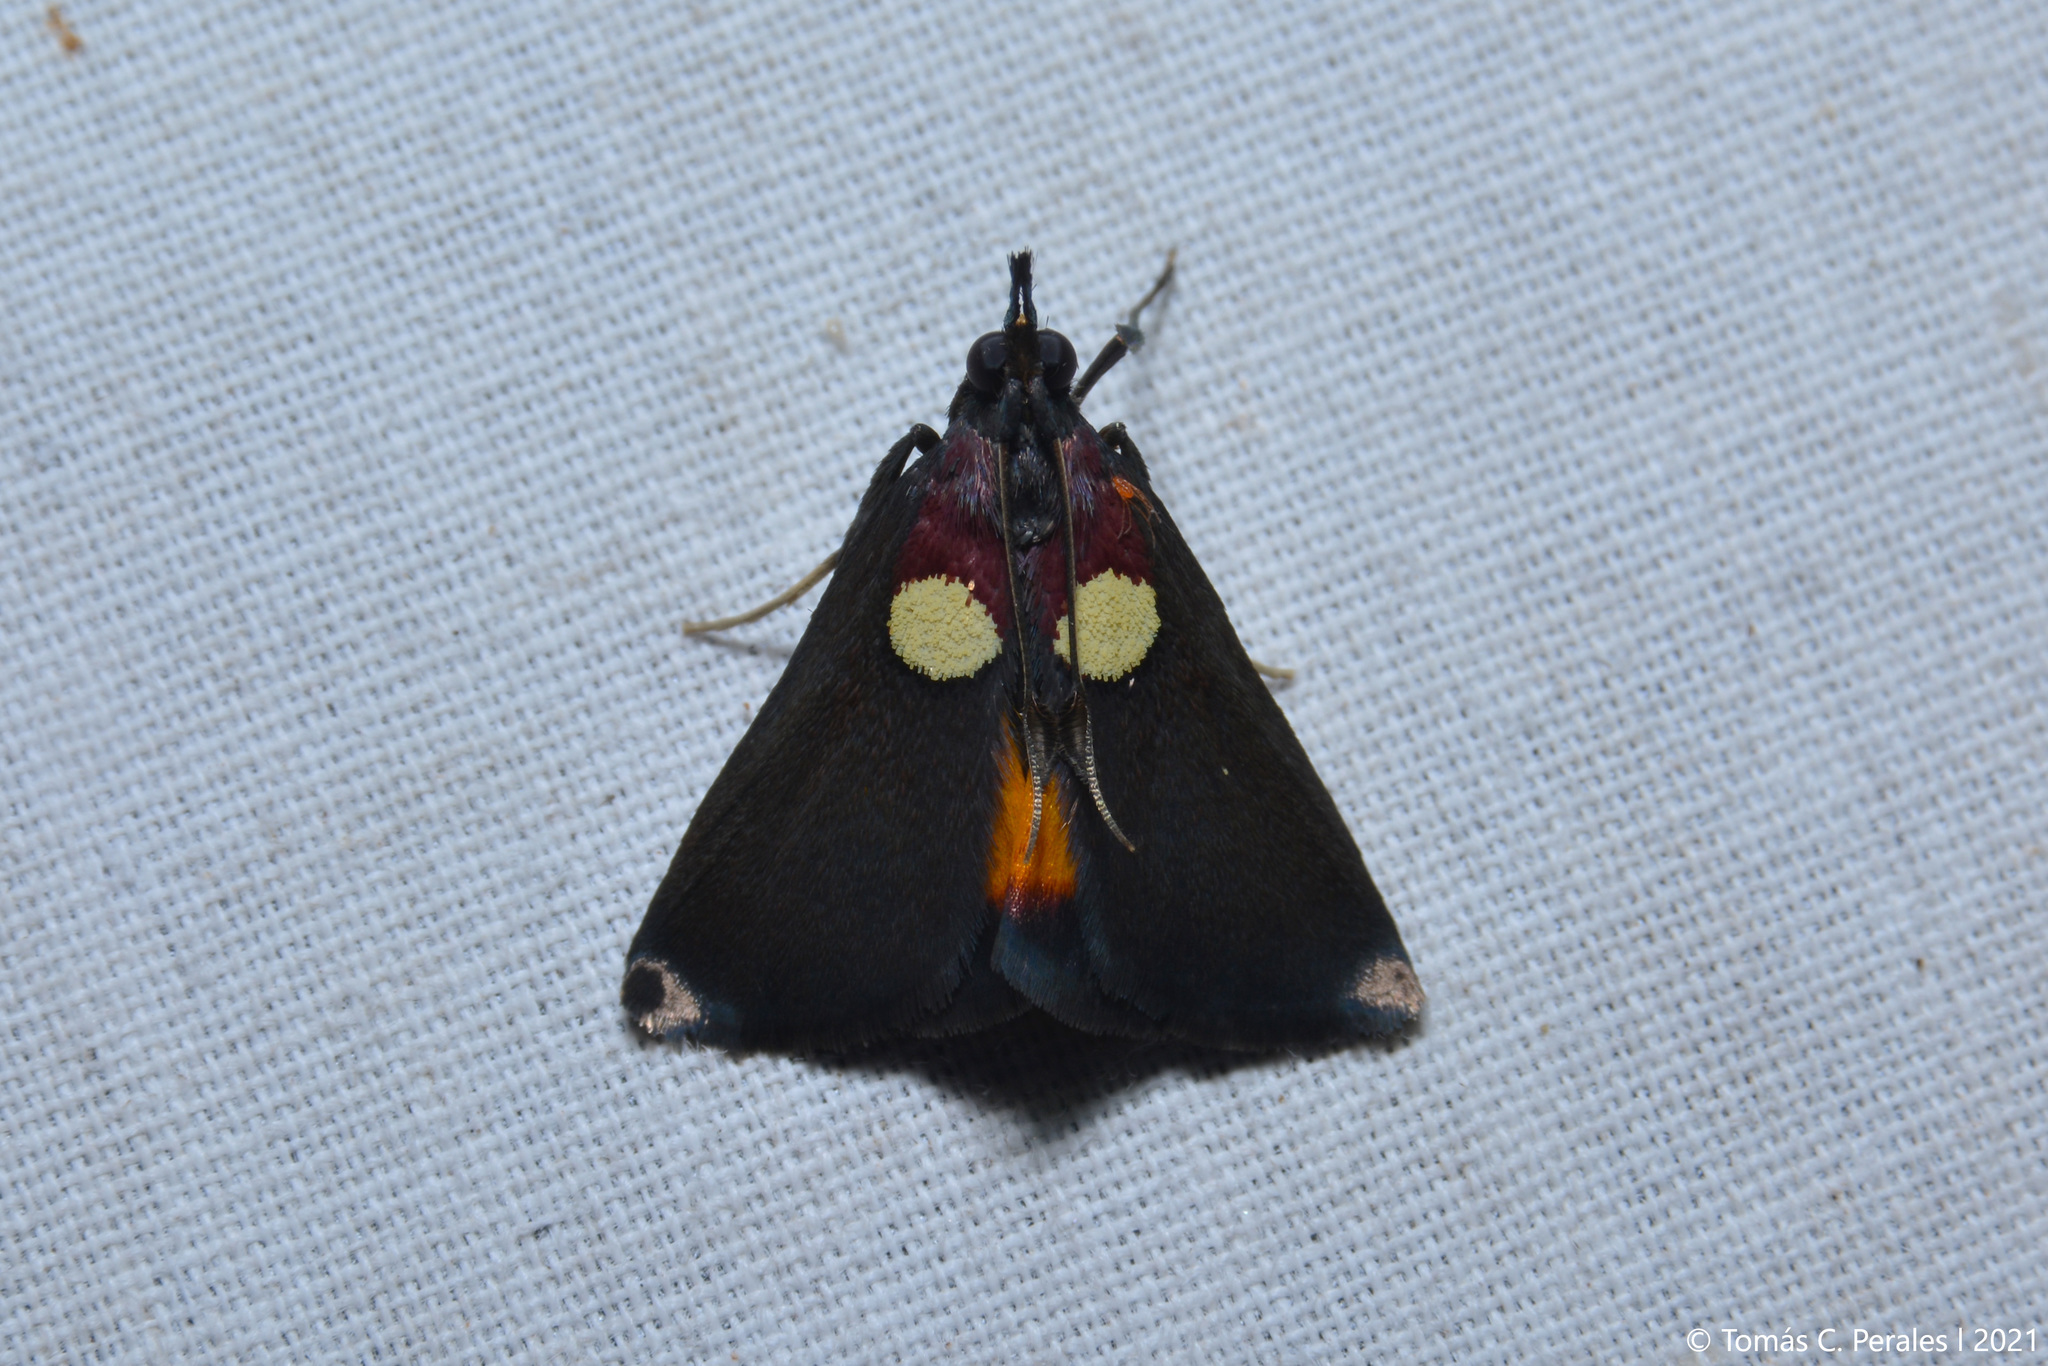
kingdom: Animalia
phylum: Arthropoda
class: Insecta
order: Lepidoptera
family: Pyralidae
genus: Semnia
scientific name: Semnia auritalis
